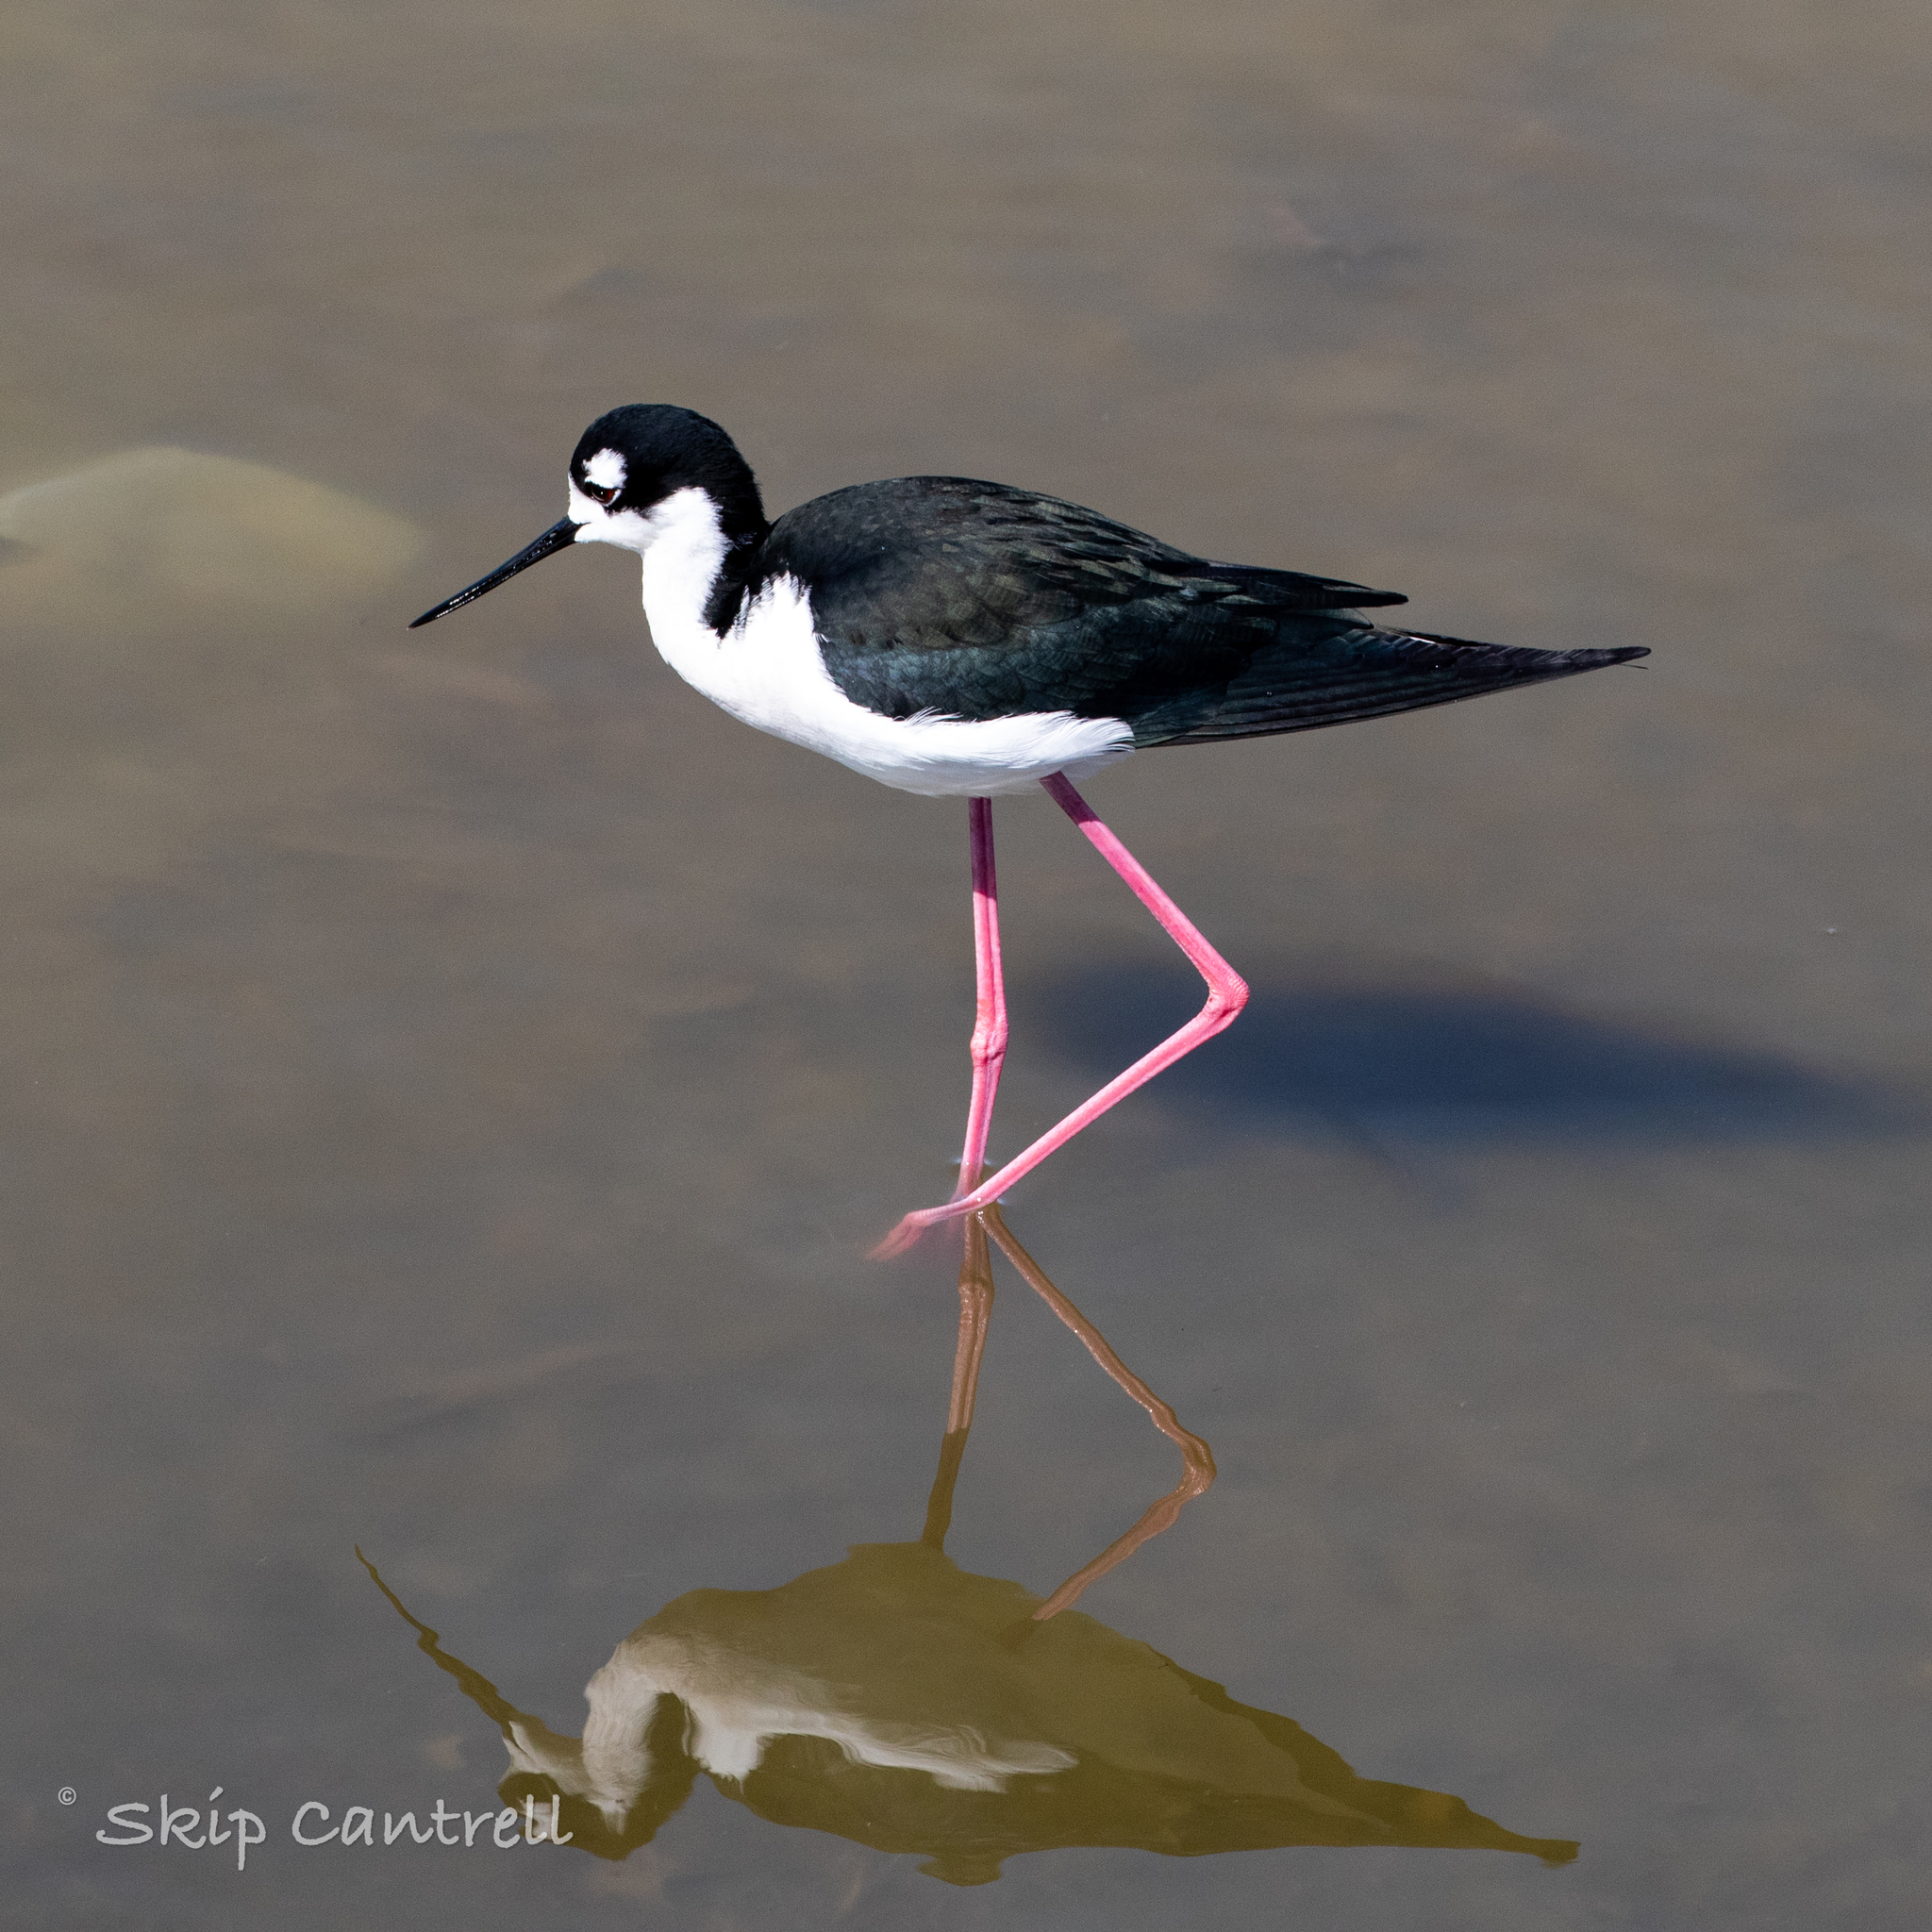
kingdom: Animalia
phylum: Chordata
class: Aves
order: Charadriiformes
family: Recurvirostridae
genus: Himantopus
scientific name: Himantopus mexicanus
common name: Black-necked stilt
